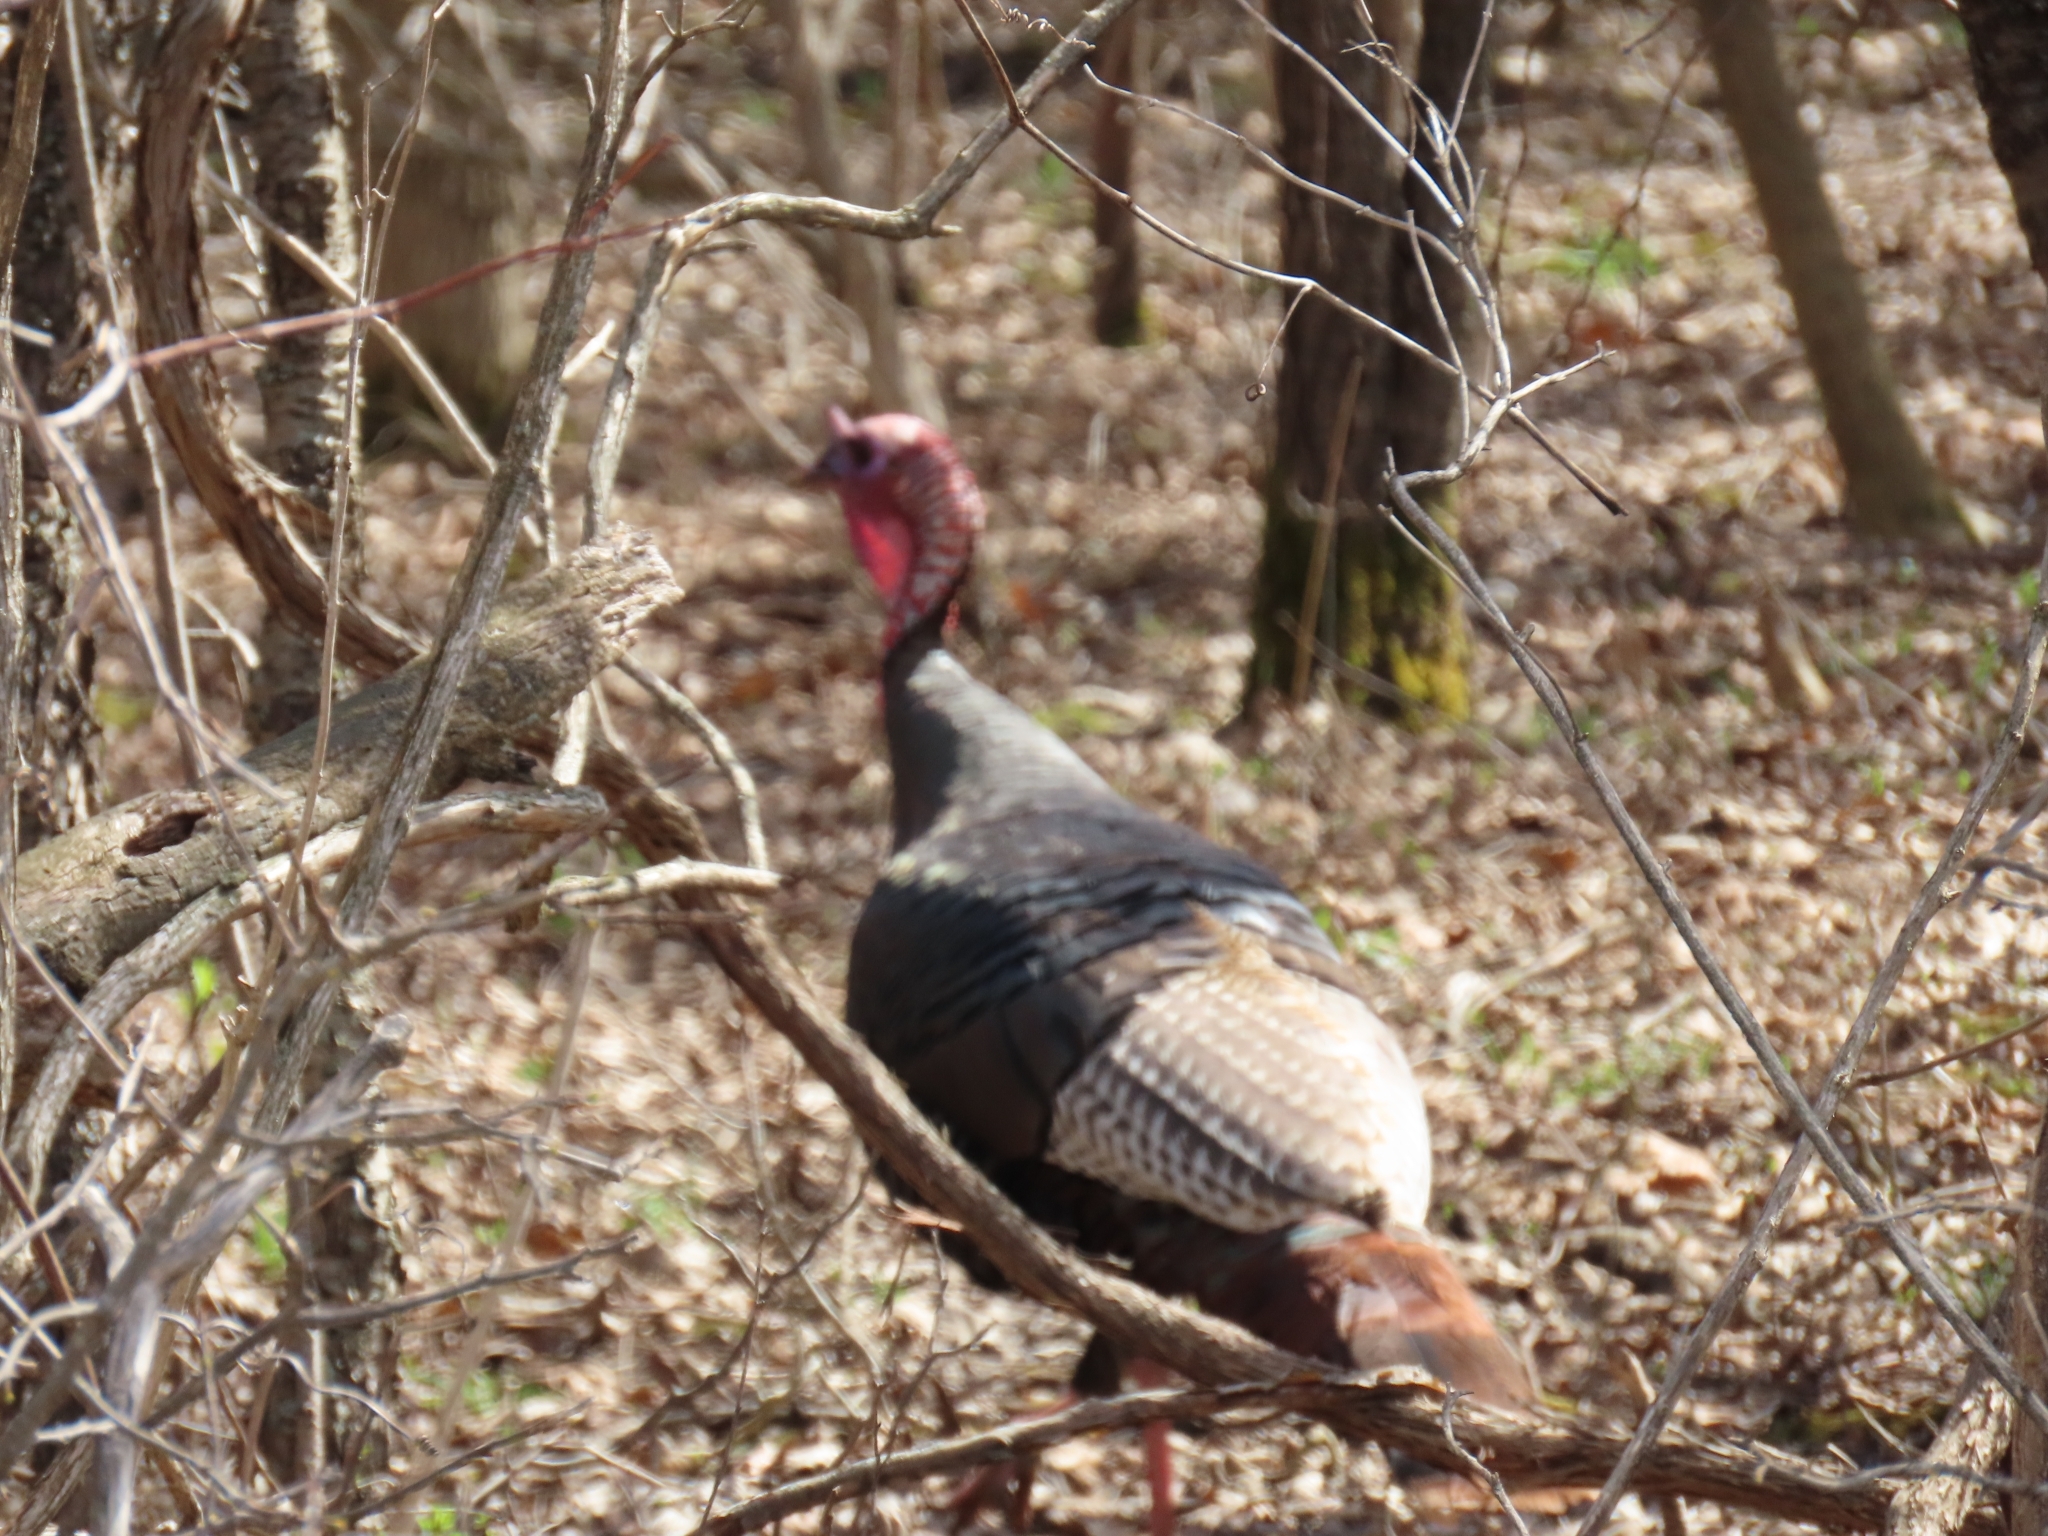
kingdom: Animalia
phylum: Chordata
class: Aves
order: Galliformes
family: Phasianidae
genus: Meleagris
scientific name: Meleagris gallopavo
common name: Wild turkey
